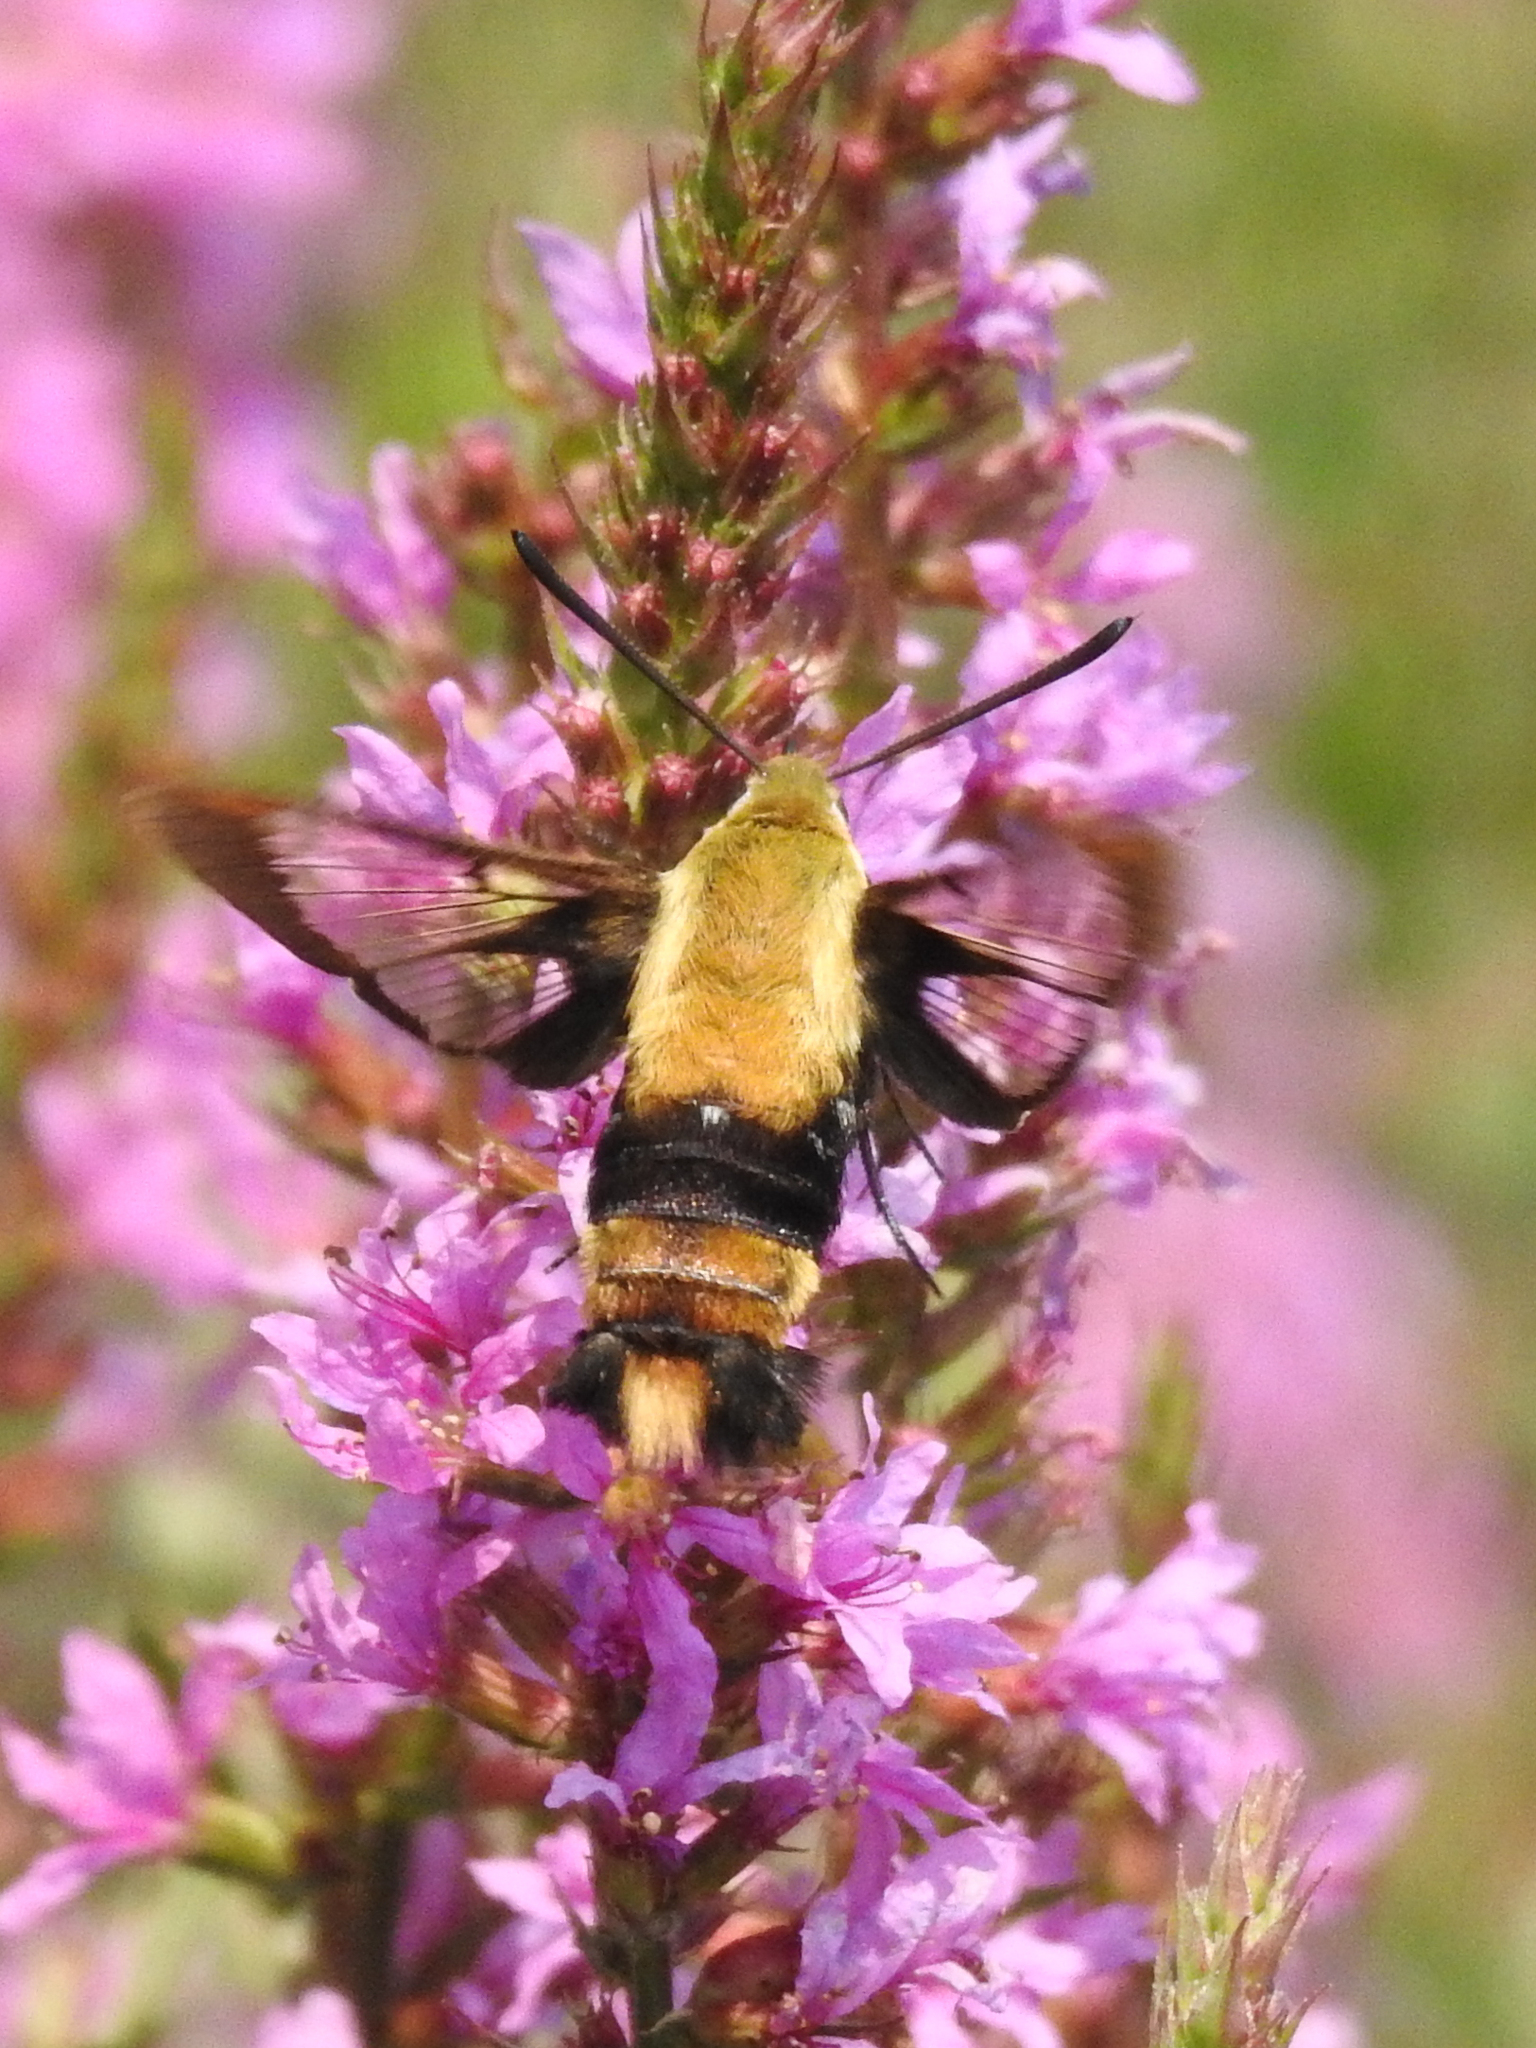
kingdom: Animalia
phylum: Arthropoda
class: Insecta
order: Lepidoptera
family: Sphingidae
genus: Hemaris
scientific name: Hemaris diffinis
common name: Bumblebee moth
